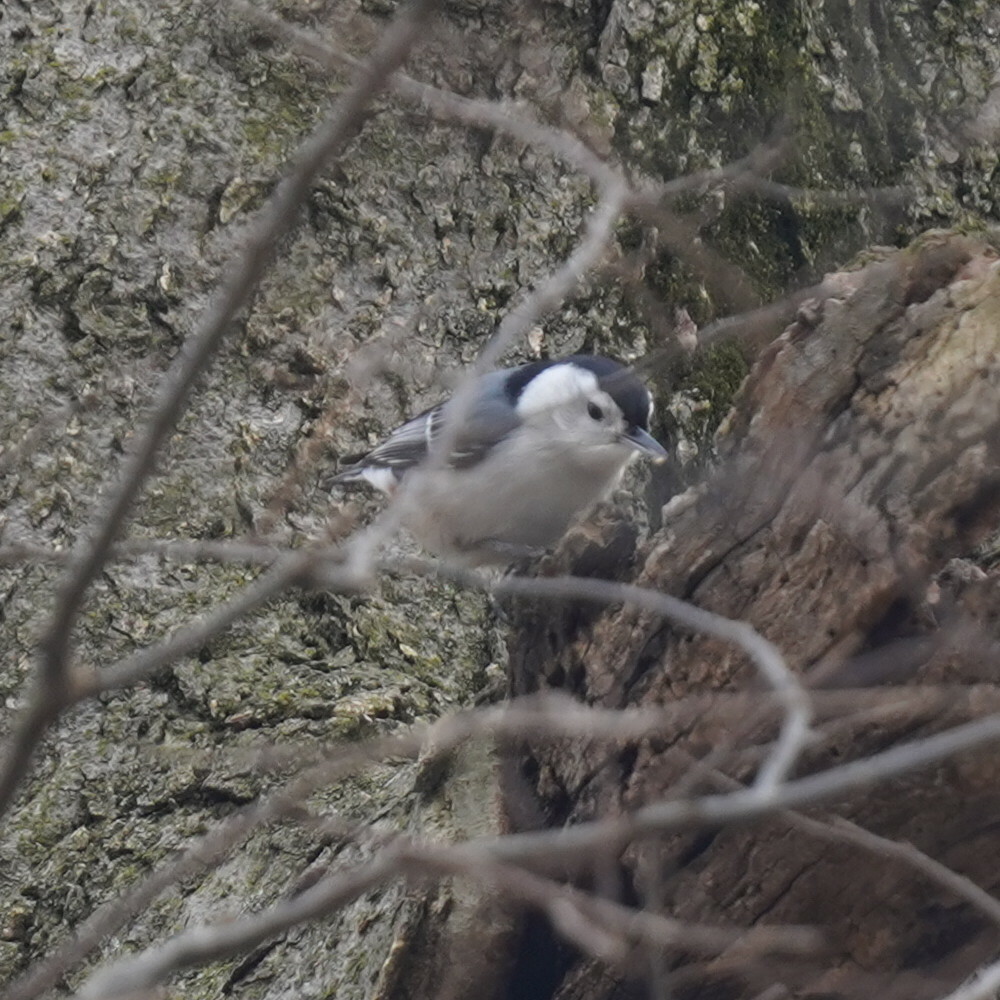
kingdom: Animalia
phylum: Chordata
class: Aves
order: Passeriformes
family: Sittidae
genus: Sitta
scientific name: Sitta carolinensis
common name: White-breasted nuthatch
